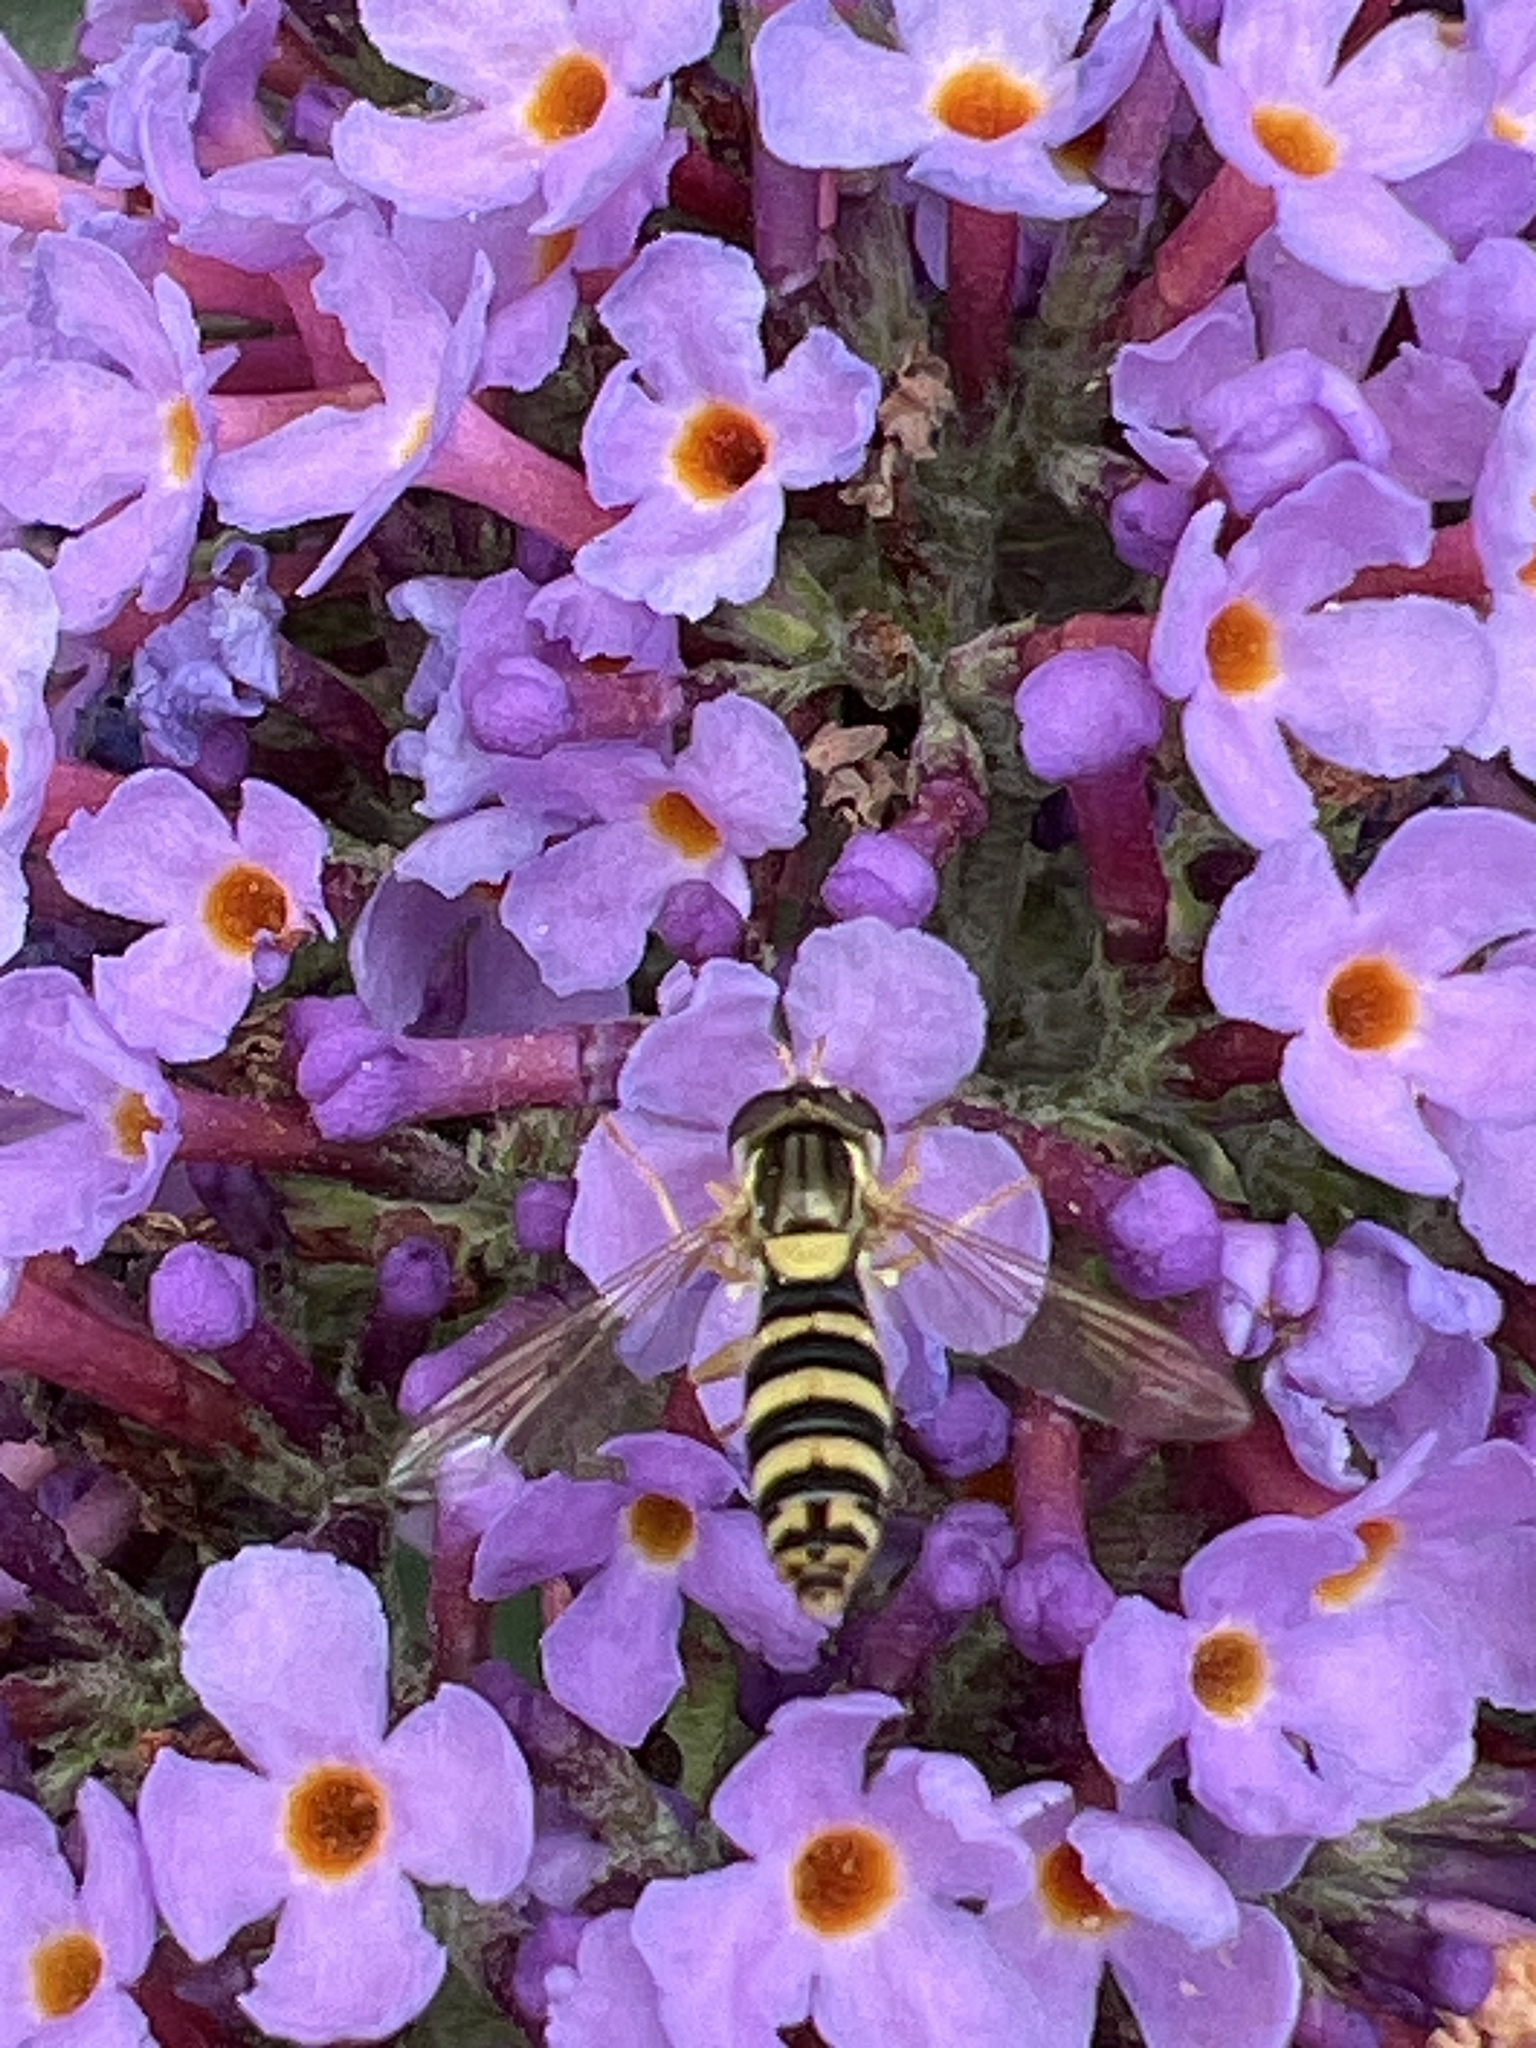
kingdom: Animalia
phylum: Arthropoda
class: Insecta
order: Diptera
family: Syrphidae
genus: Sphaerophoria
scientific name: Sphaerophoria
